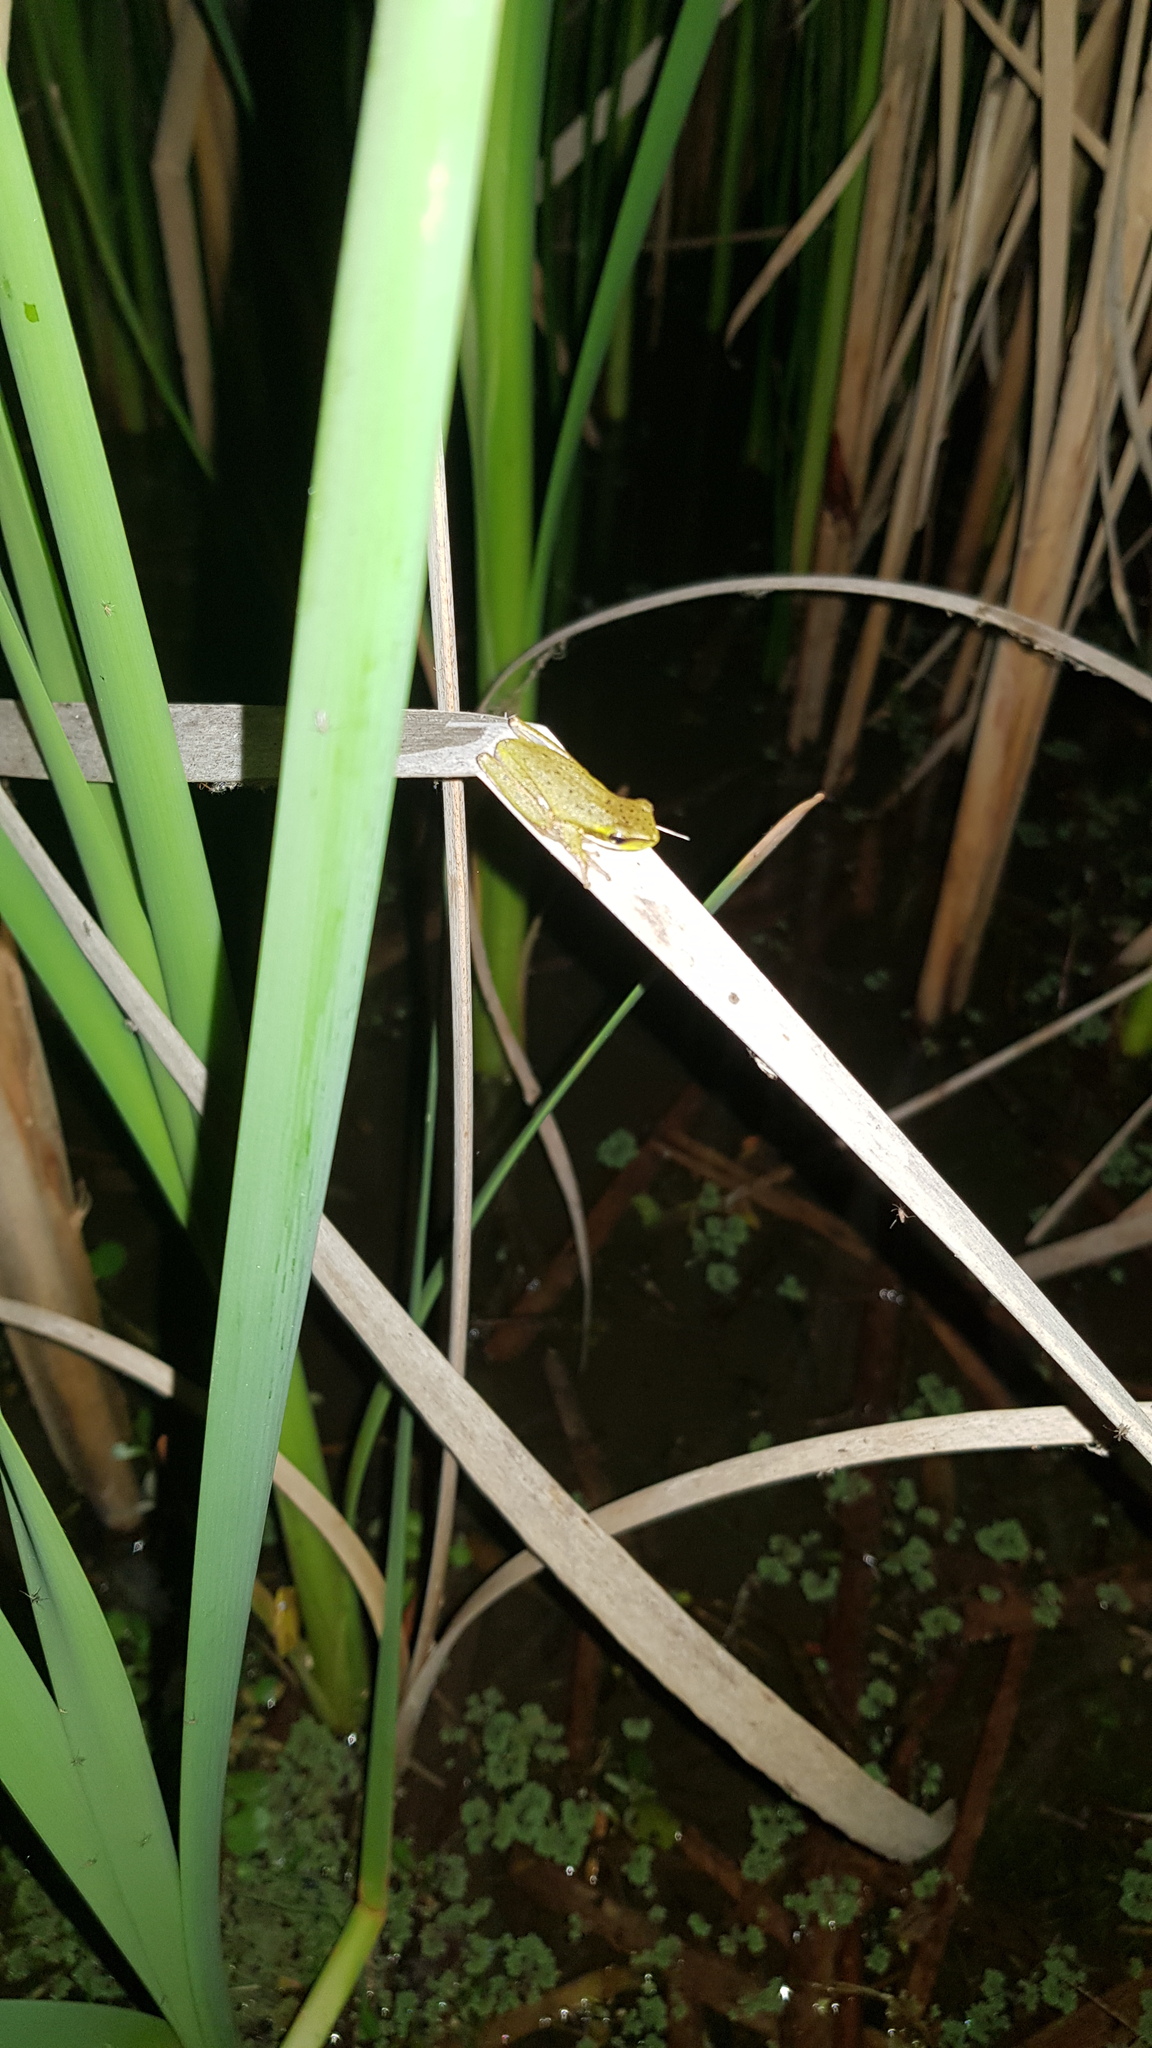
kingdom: Animalia
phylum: Chordata
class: Amphibia
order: Anura
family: Pelodryadidae
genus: Litoria
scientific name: Litoria fallax
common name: Eastern dwarf treefrog
